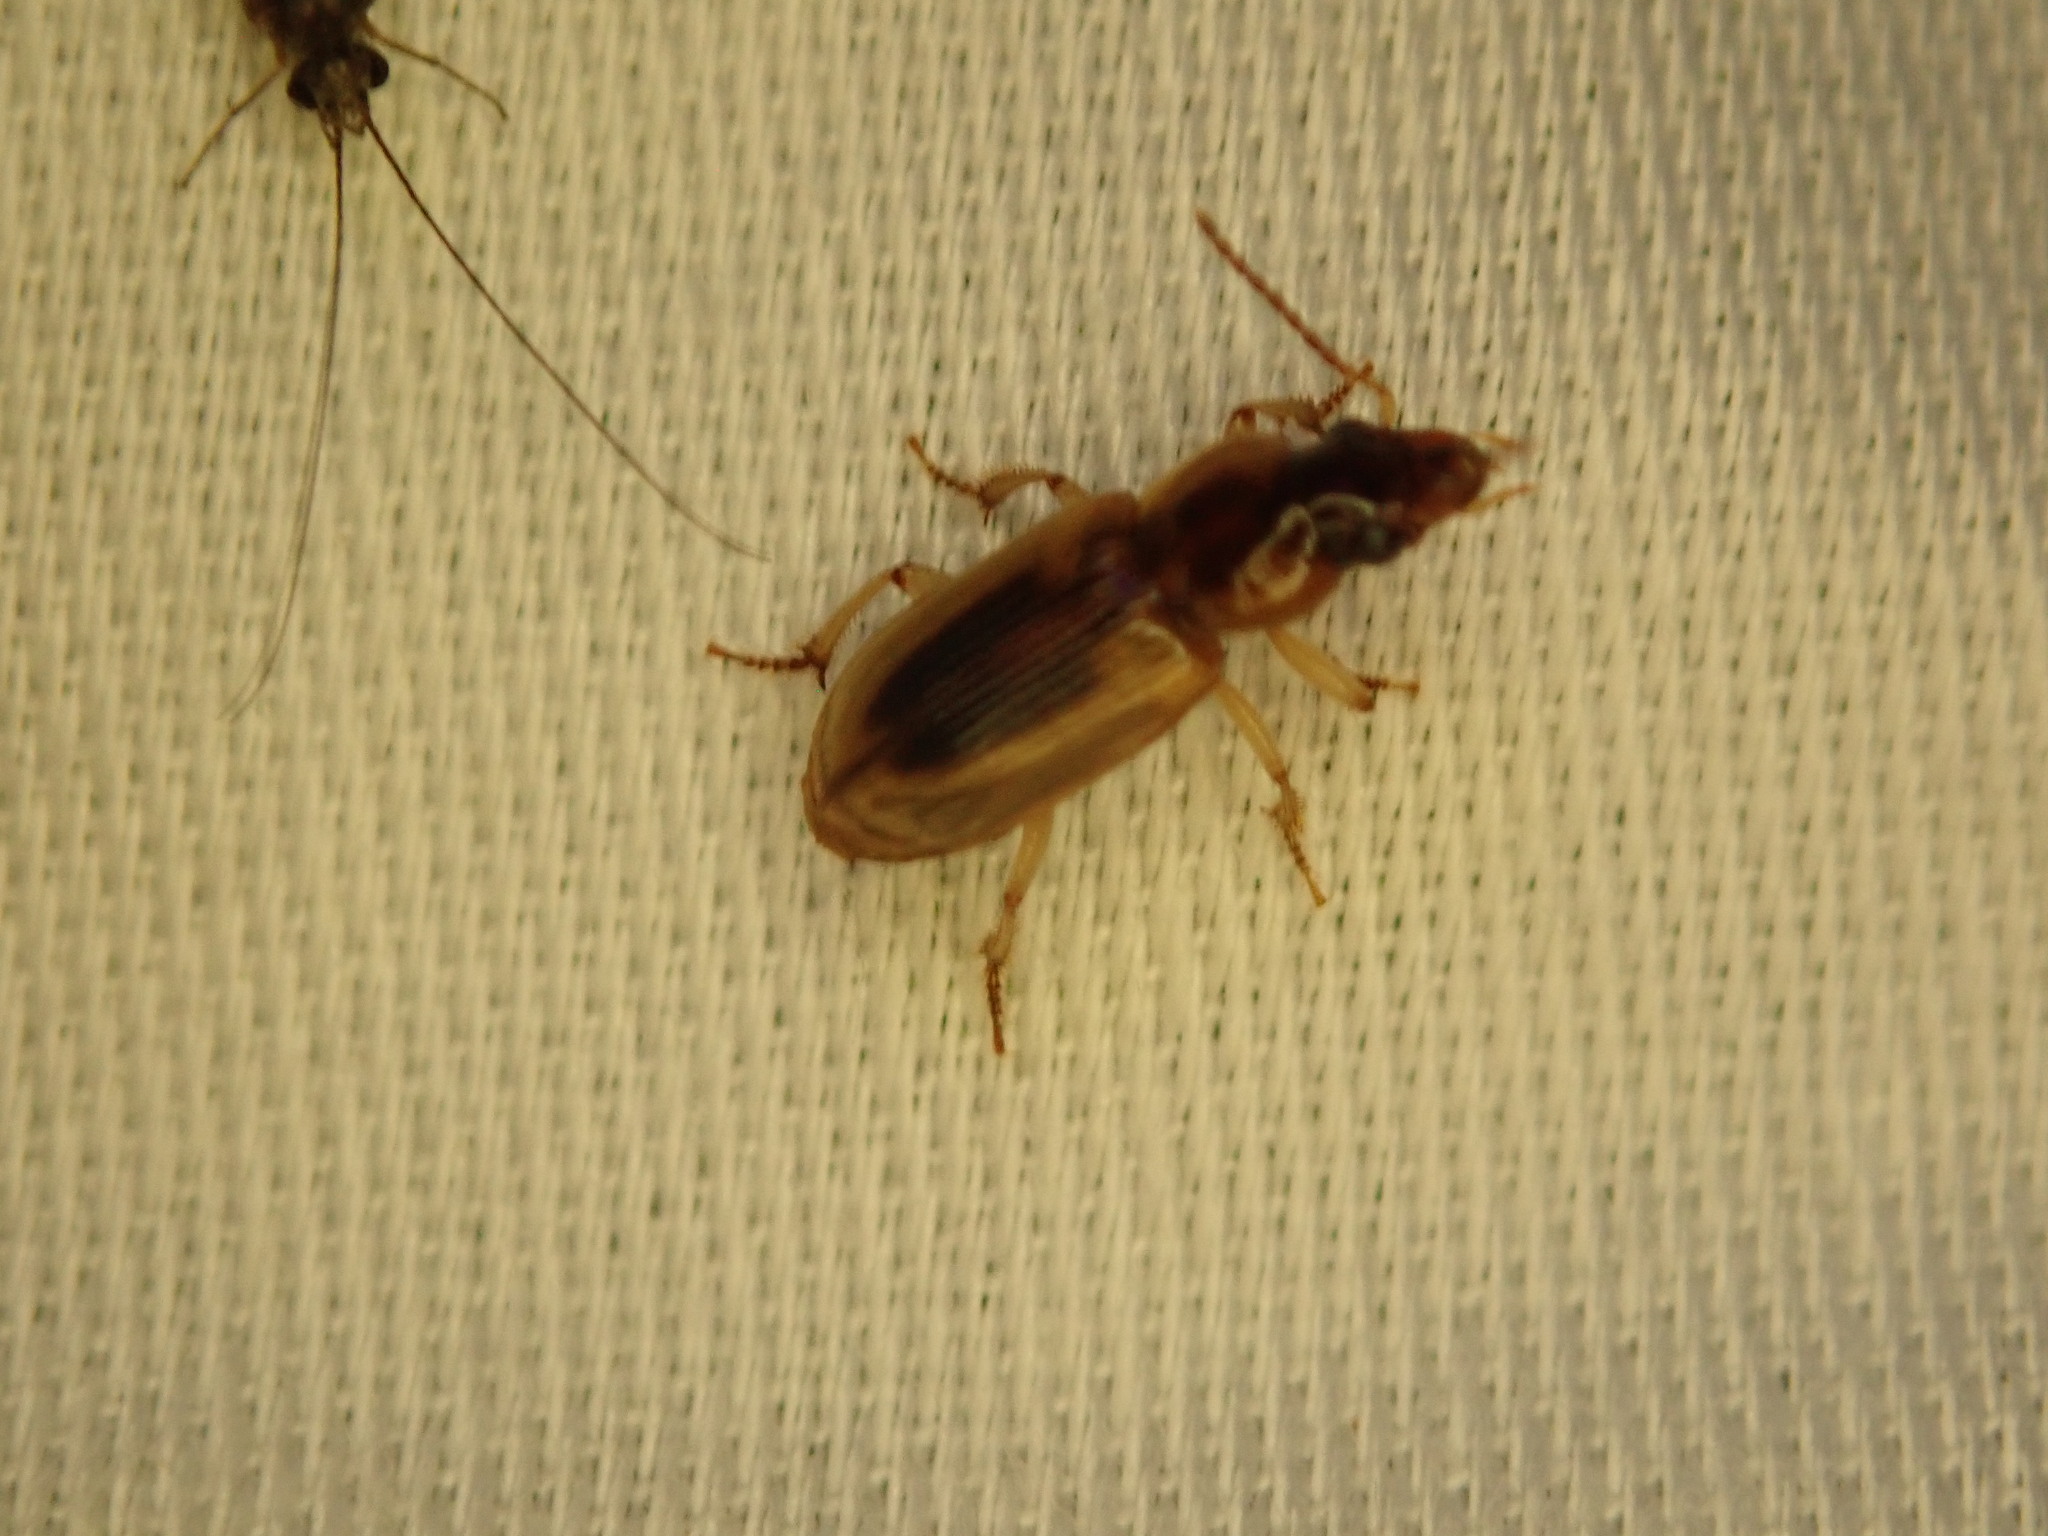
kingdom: Animalia
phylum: Arthropoda
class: Insecta
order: Coleoptera
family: Carabidae
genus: Stenolophus
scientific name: Stenolophus lecontei
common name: Leconte's seedcorn beetle
